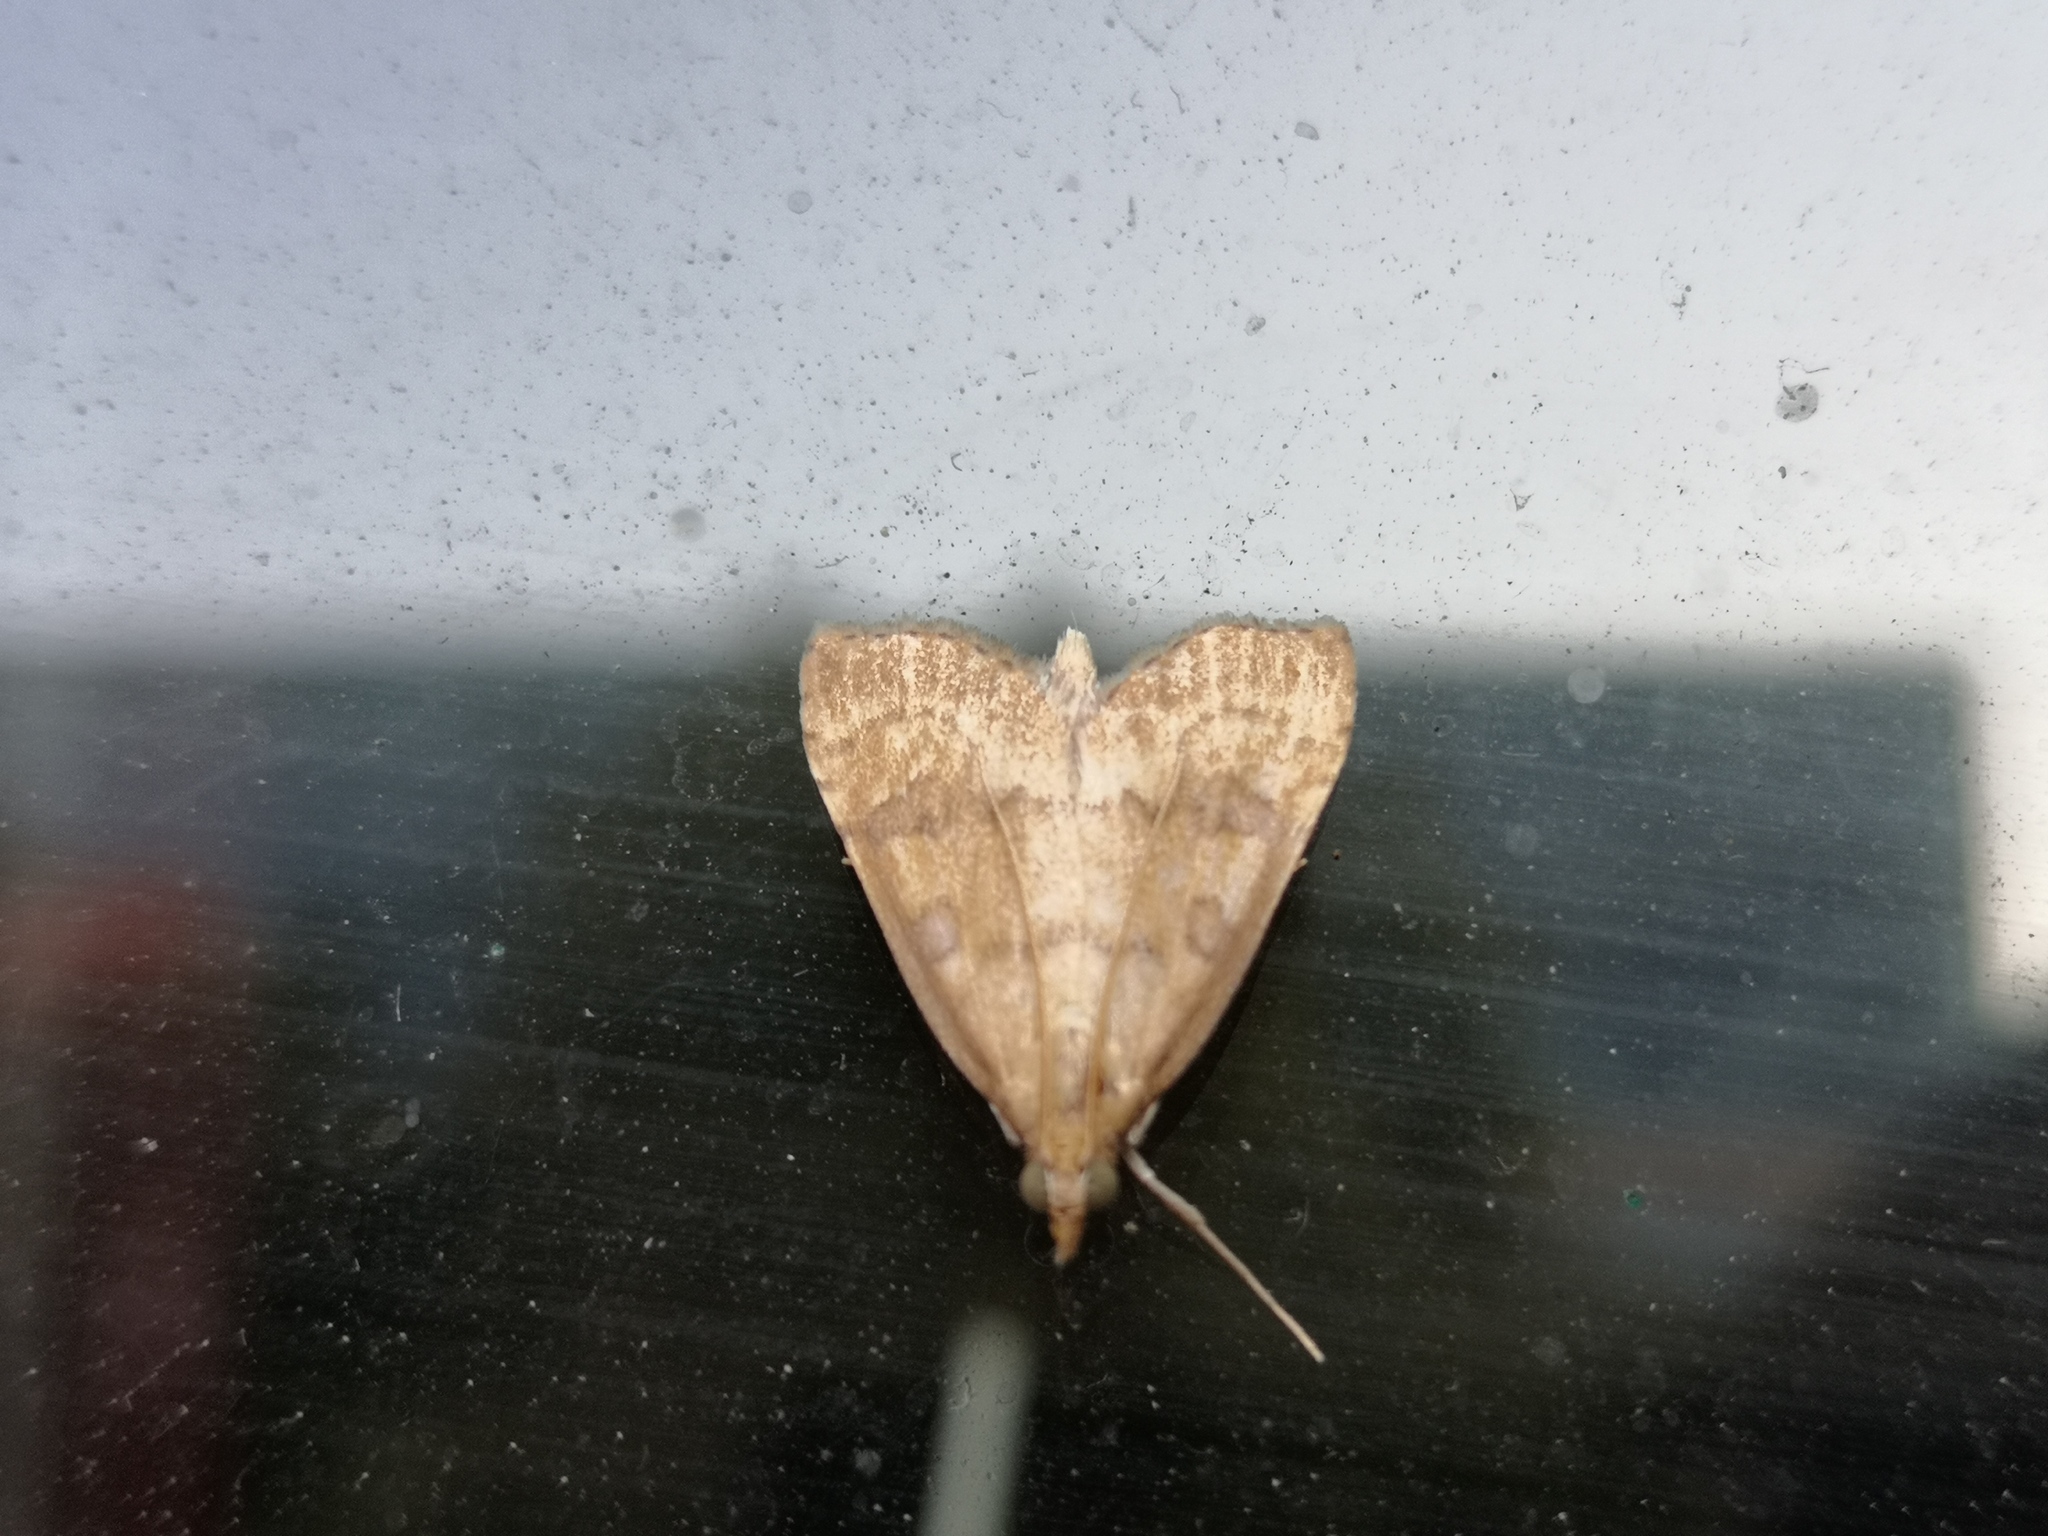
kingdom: Animalia
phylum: Arthropoda
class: Insecta
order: Lepidoptera
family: Crambidae
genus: Udea
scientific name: Udea fulvalis
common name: Fulvous pearl
